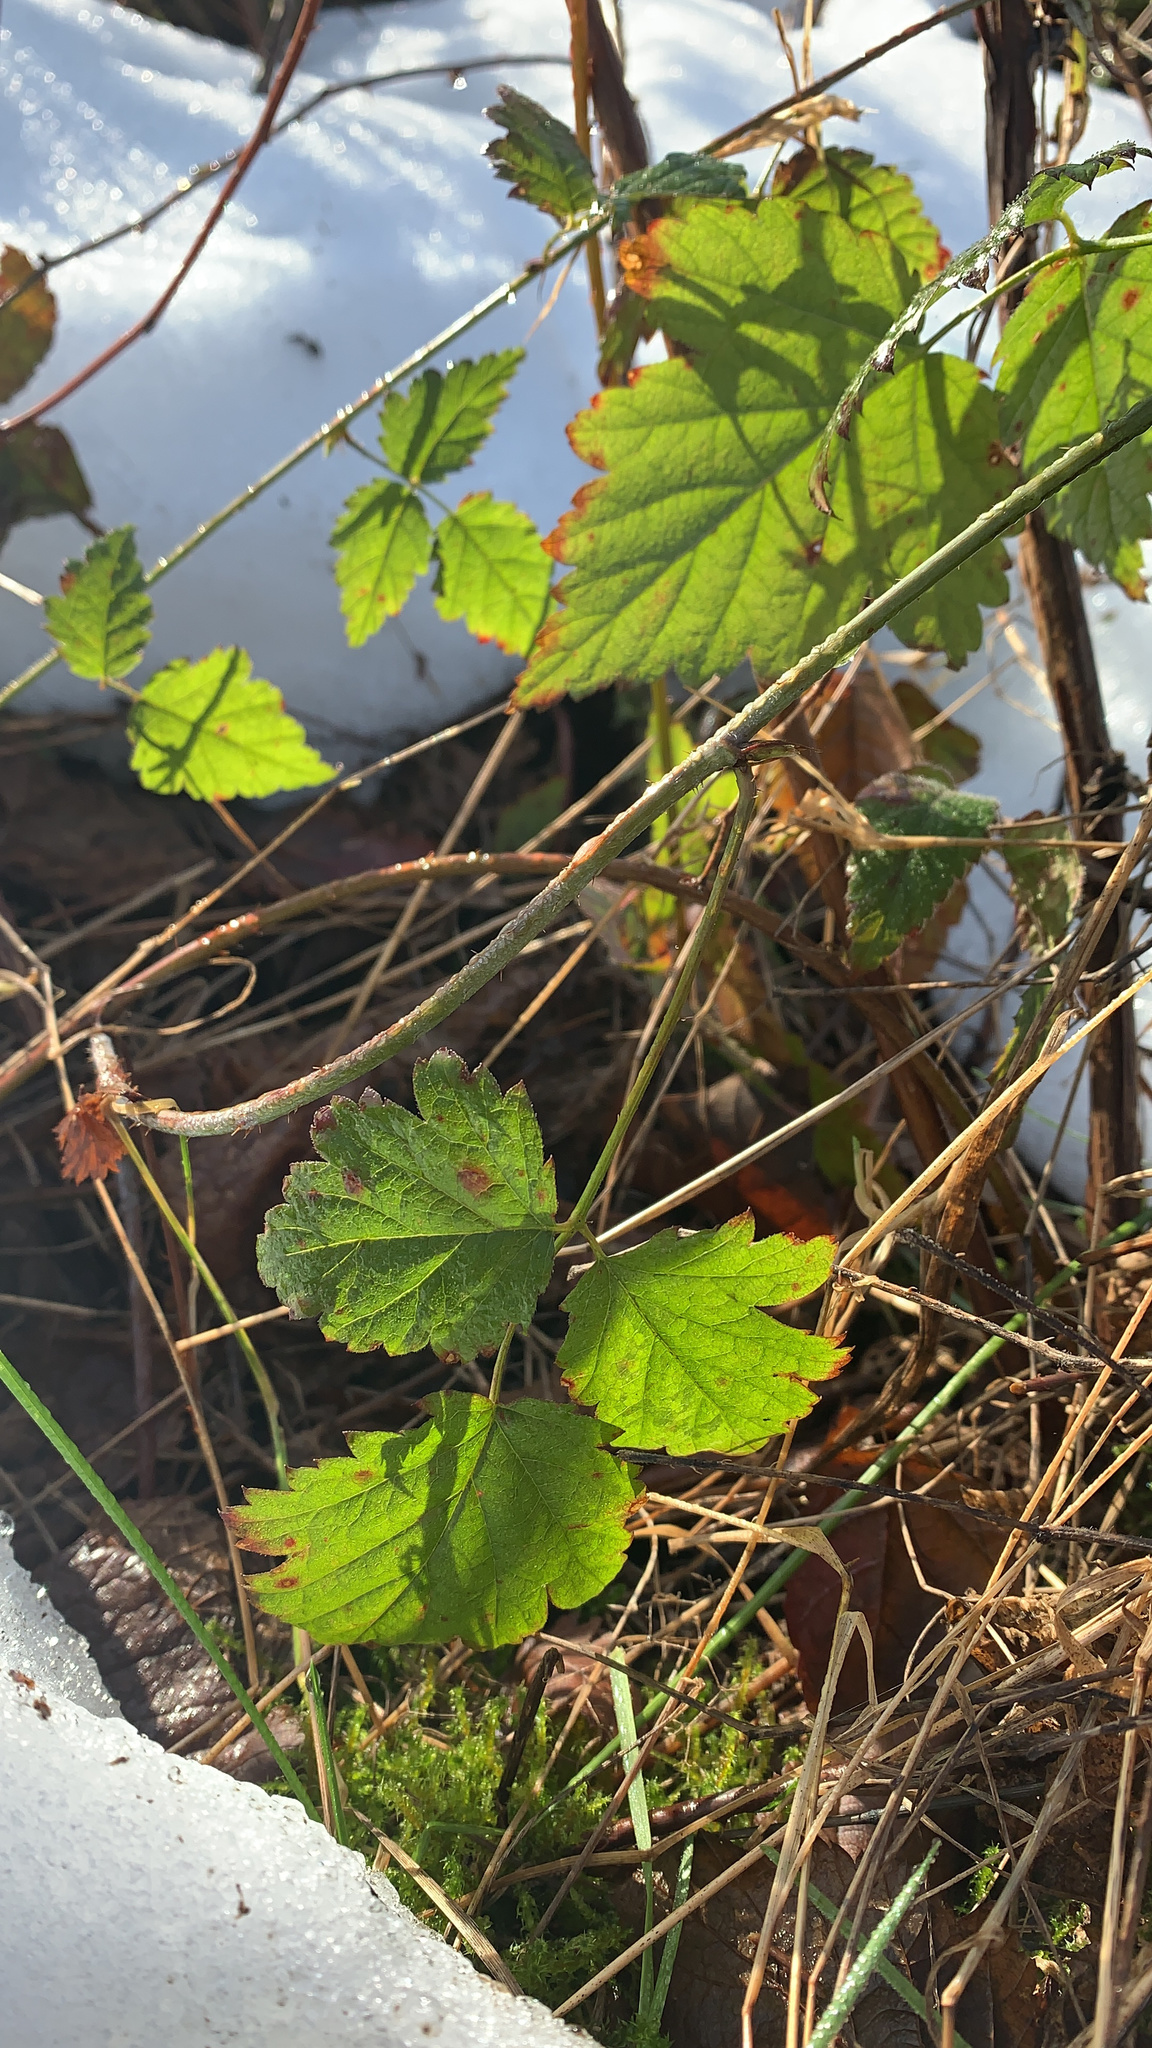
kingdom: Plantae
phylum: Tracheophyta
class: Magnoliopsida
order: Rosales
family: Rosaceae
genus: Rubus
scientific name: Rubus ursinus
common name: Pacific blackberry
